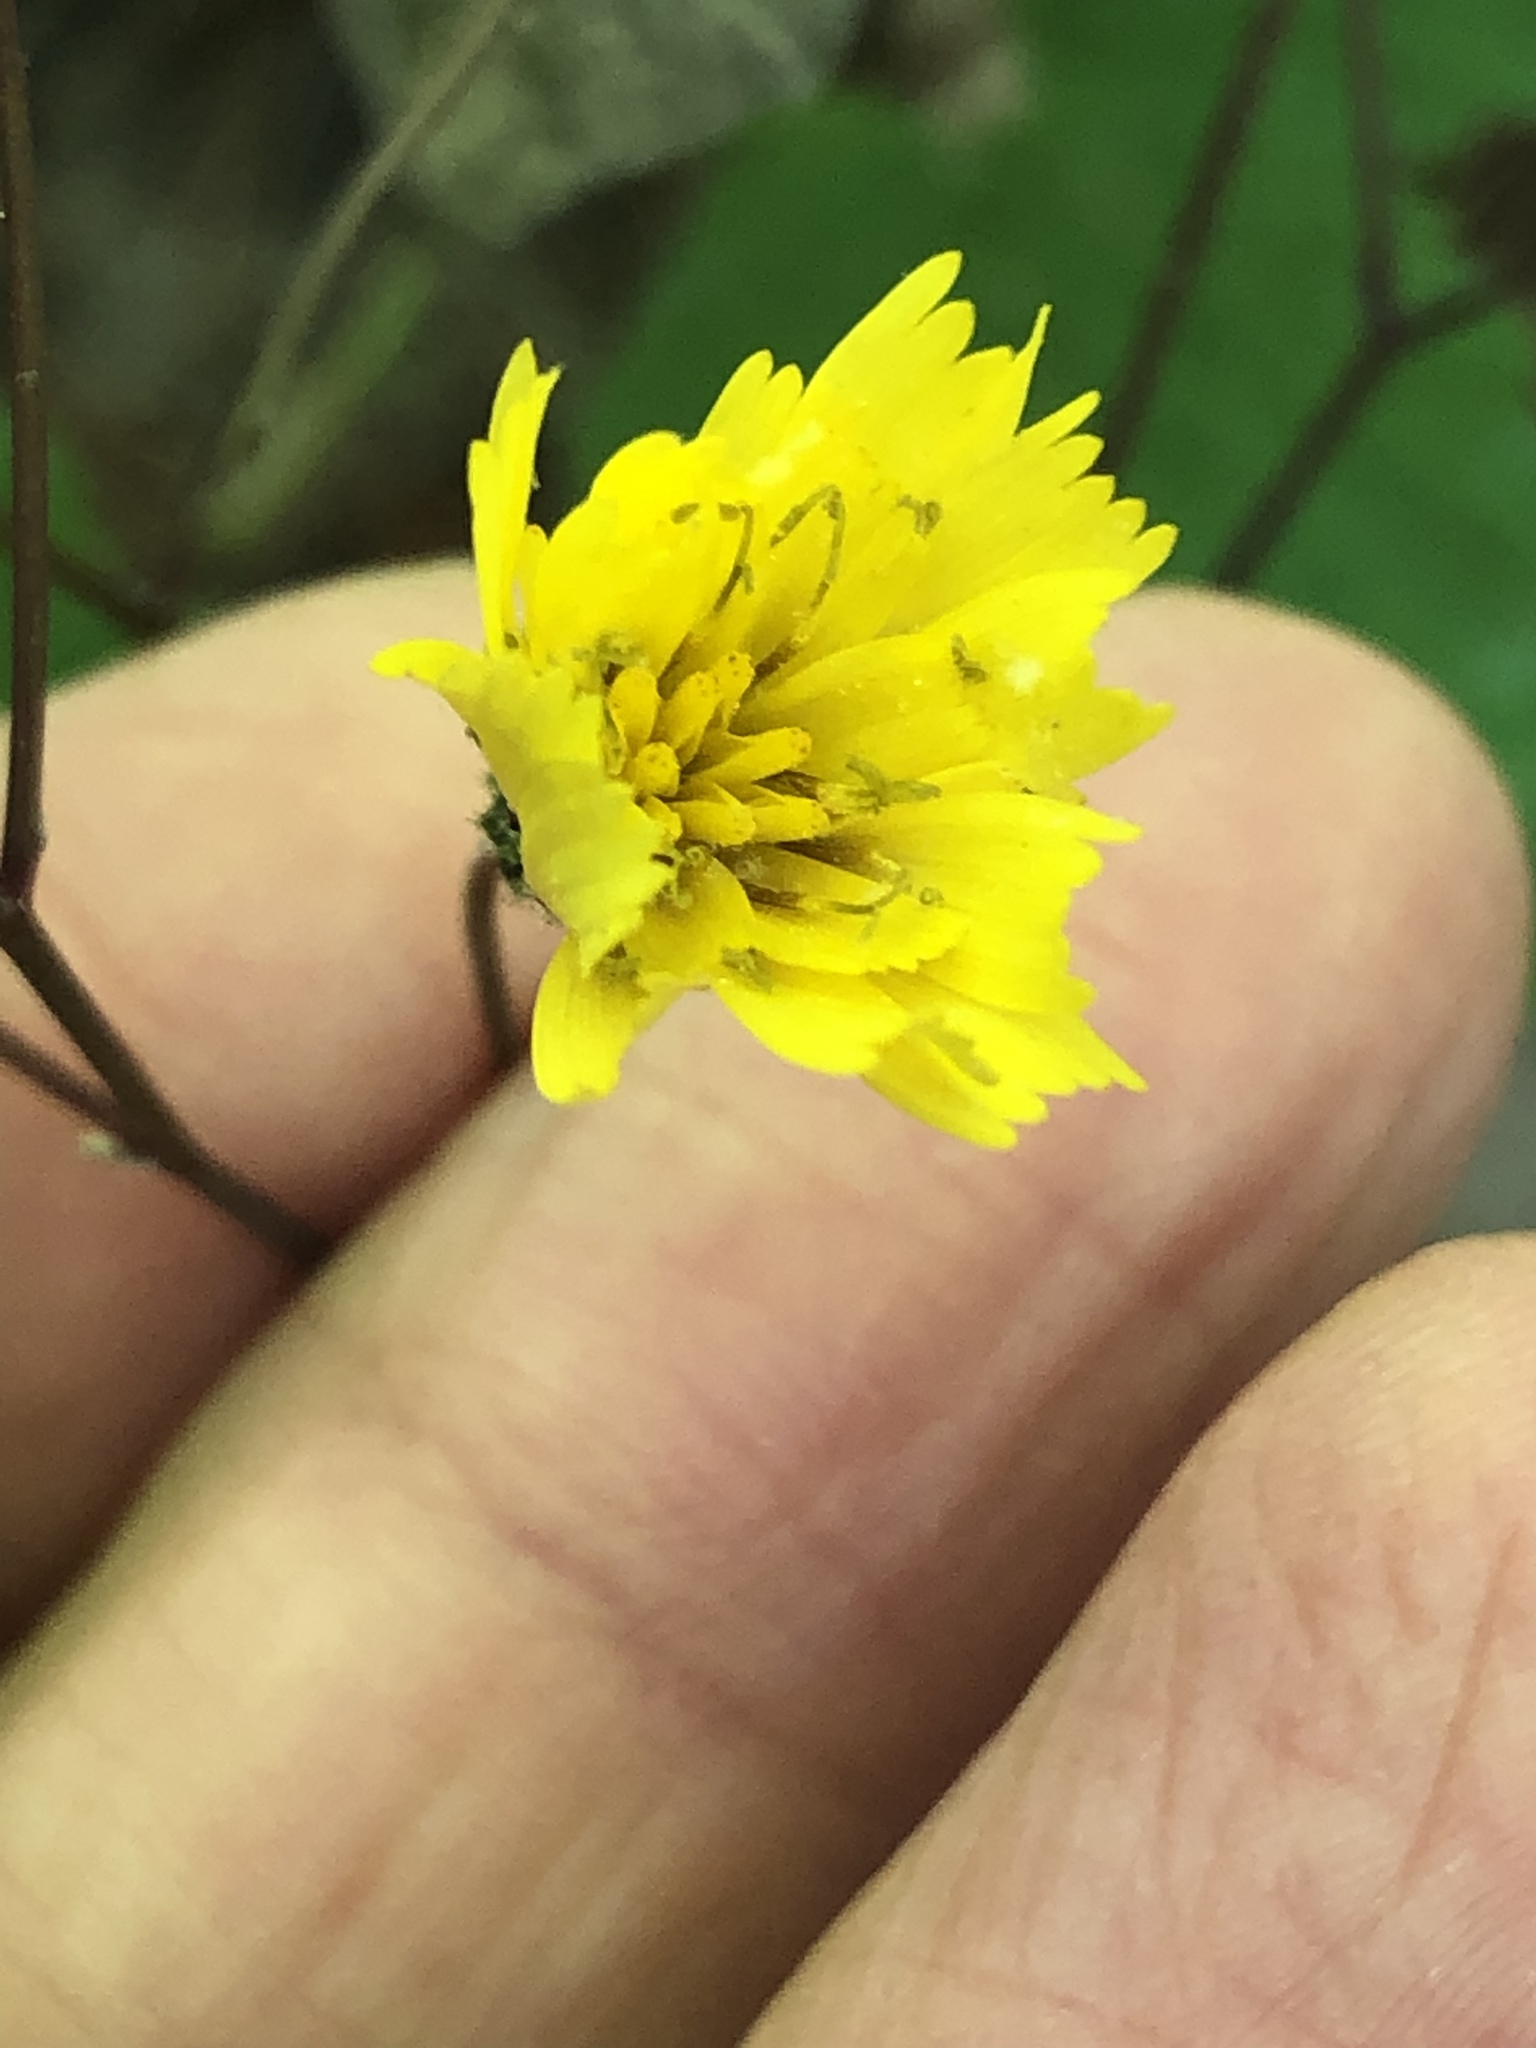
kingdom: Plantae
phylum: Tracheophyta
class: Magnoliopsida
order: Asterales
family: Asteraceae
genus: Hieracium
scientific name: Hieracium venosum
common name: Rattlesnake hawkweed
